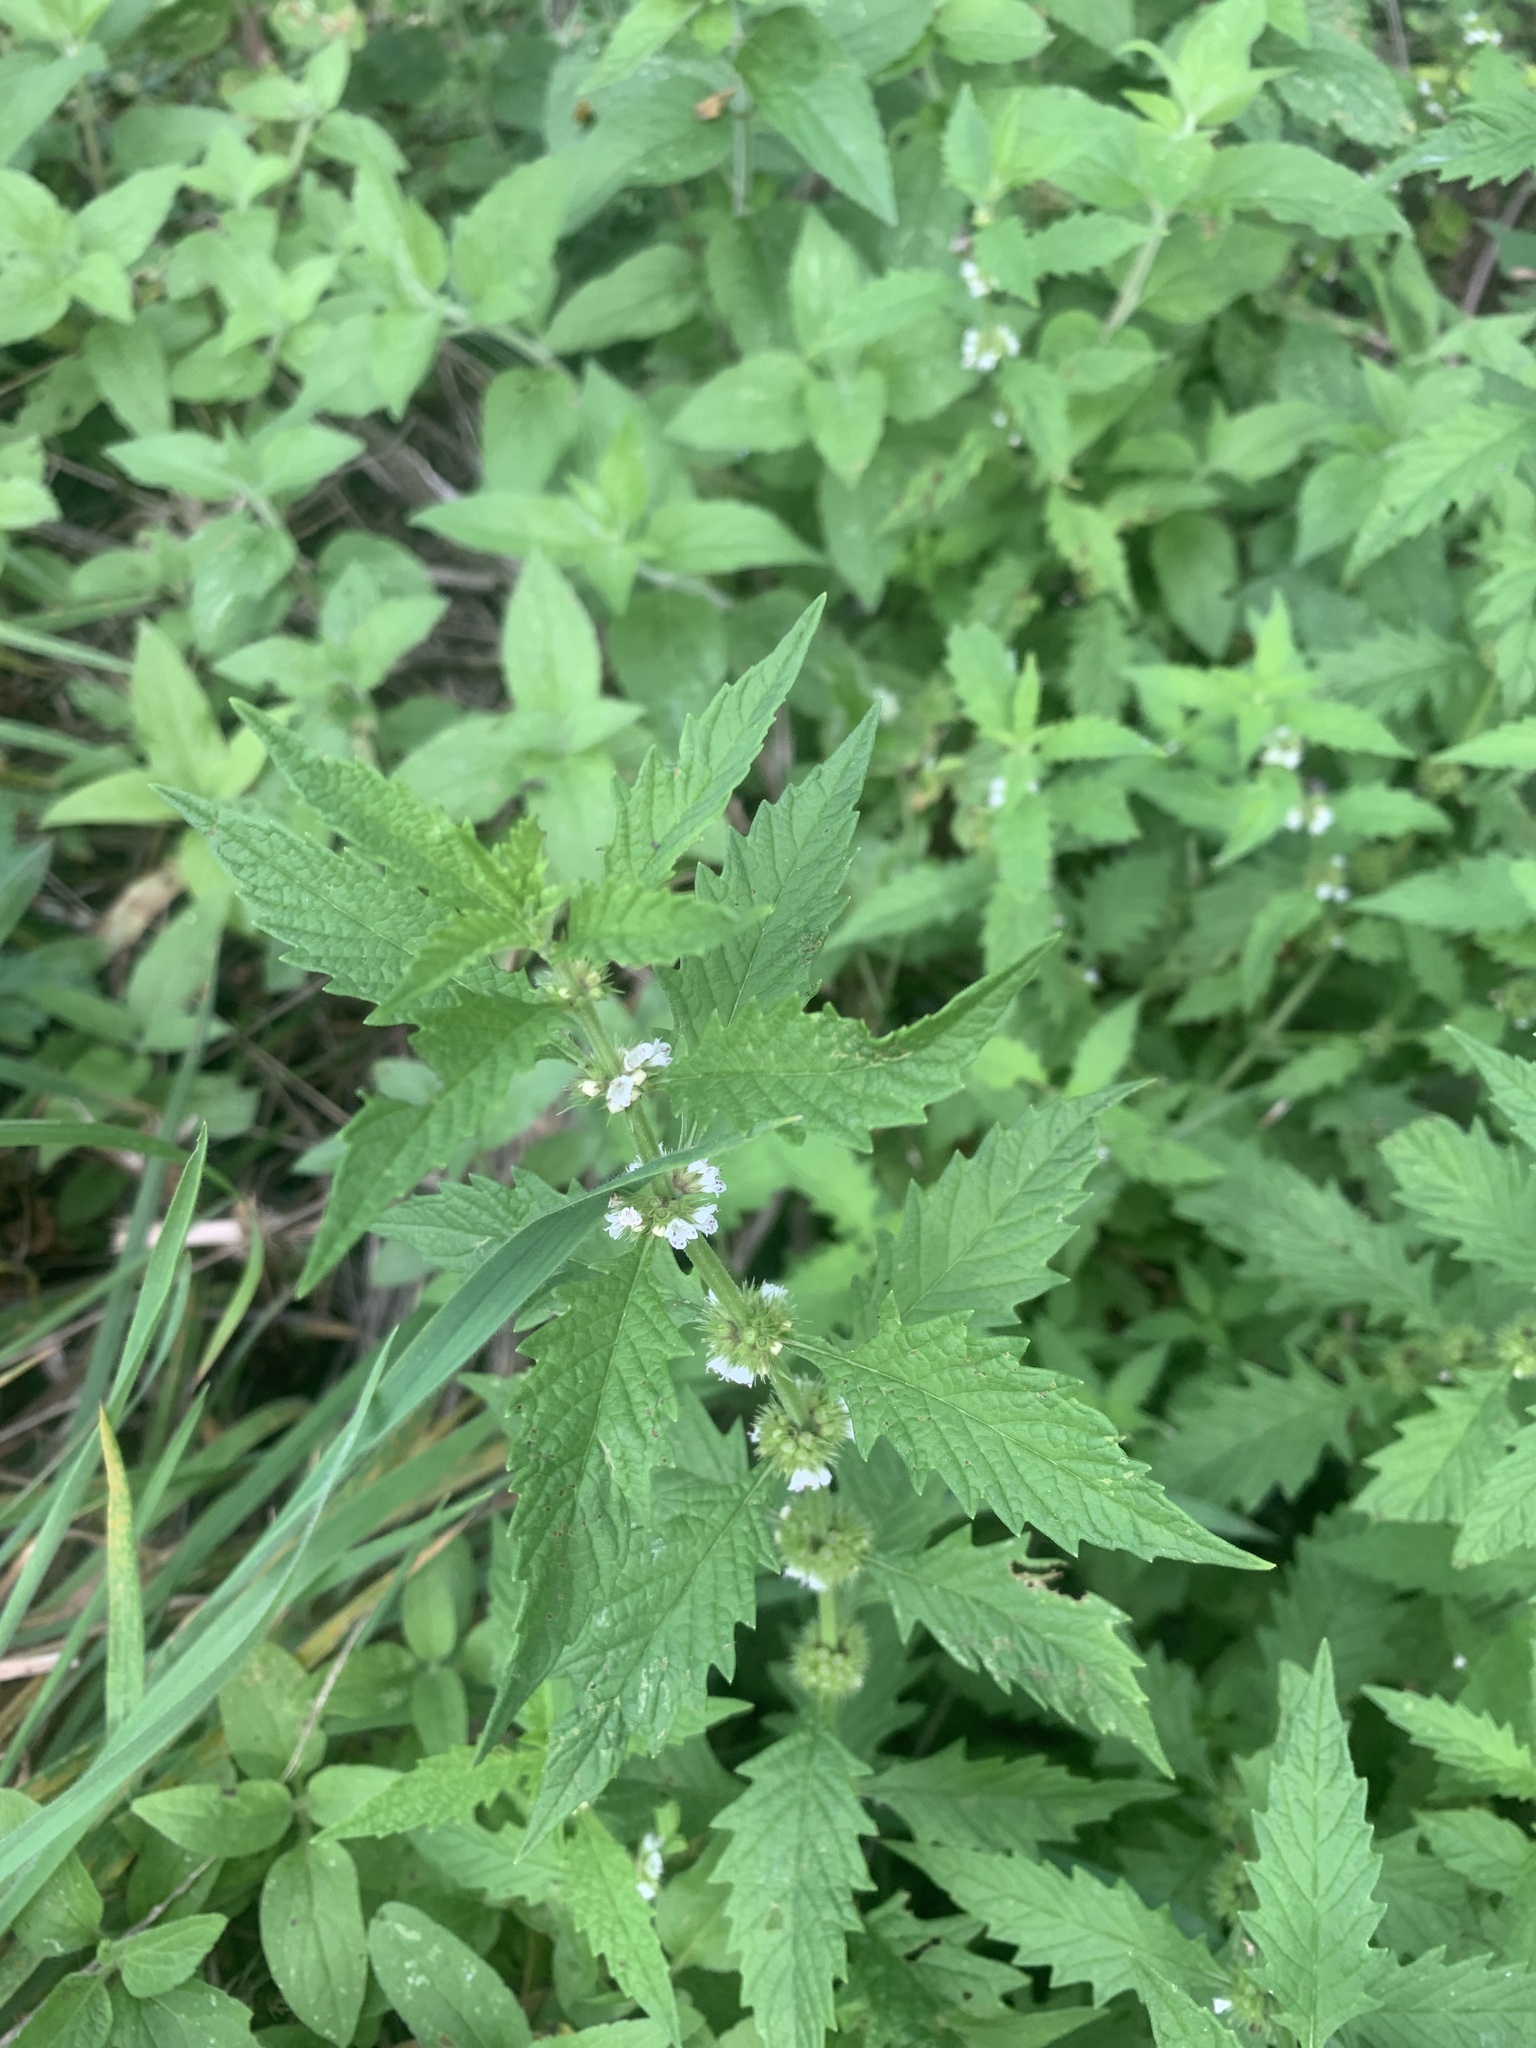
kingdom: Plantae
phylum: Tracheophyta
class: Magnoliopsida
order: Lamiales
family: Lamiaceae
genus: Lycopus
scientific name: Lycopus europaeus
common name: European bugleweed
